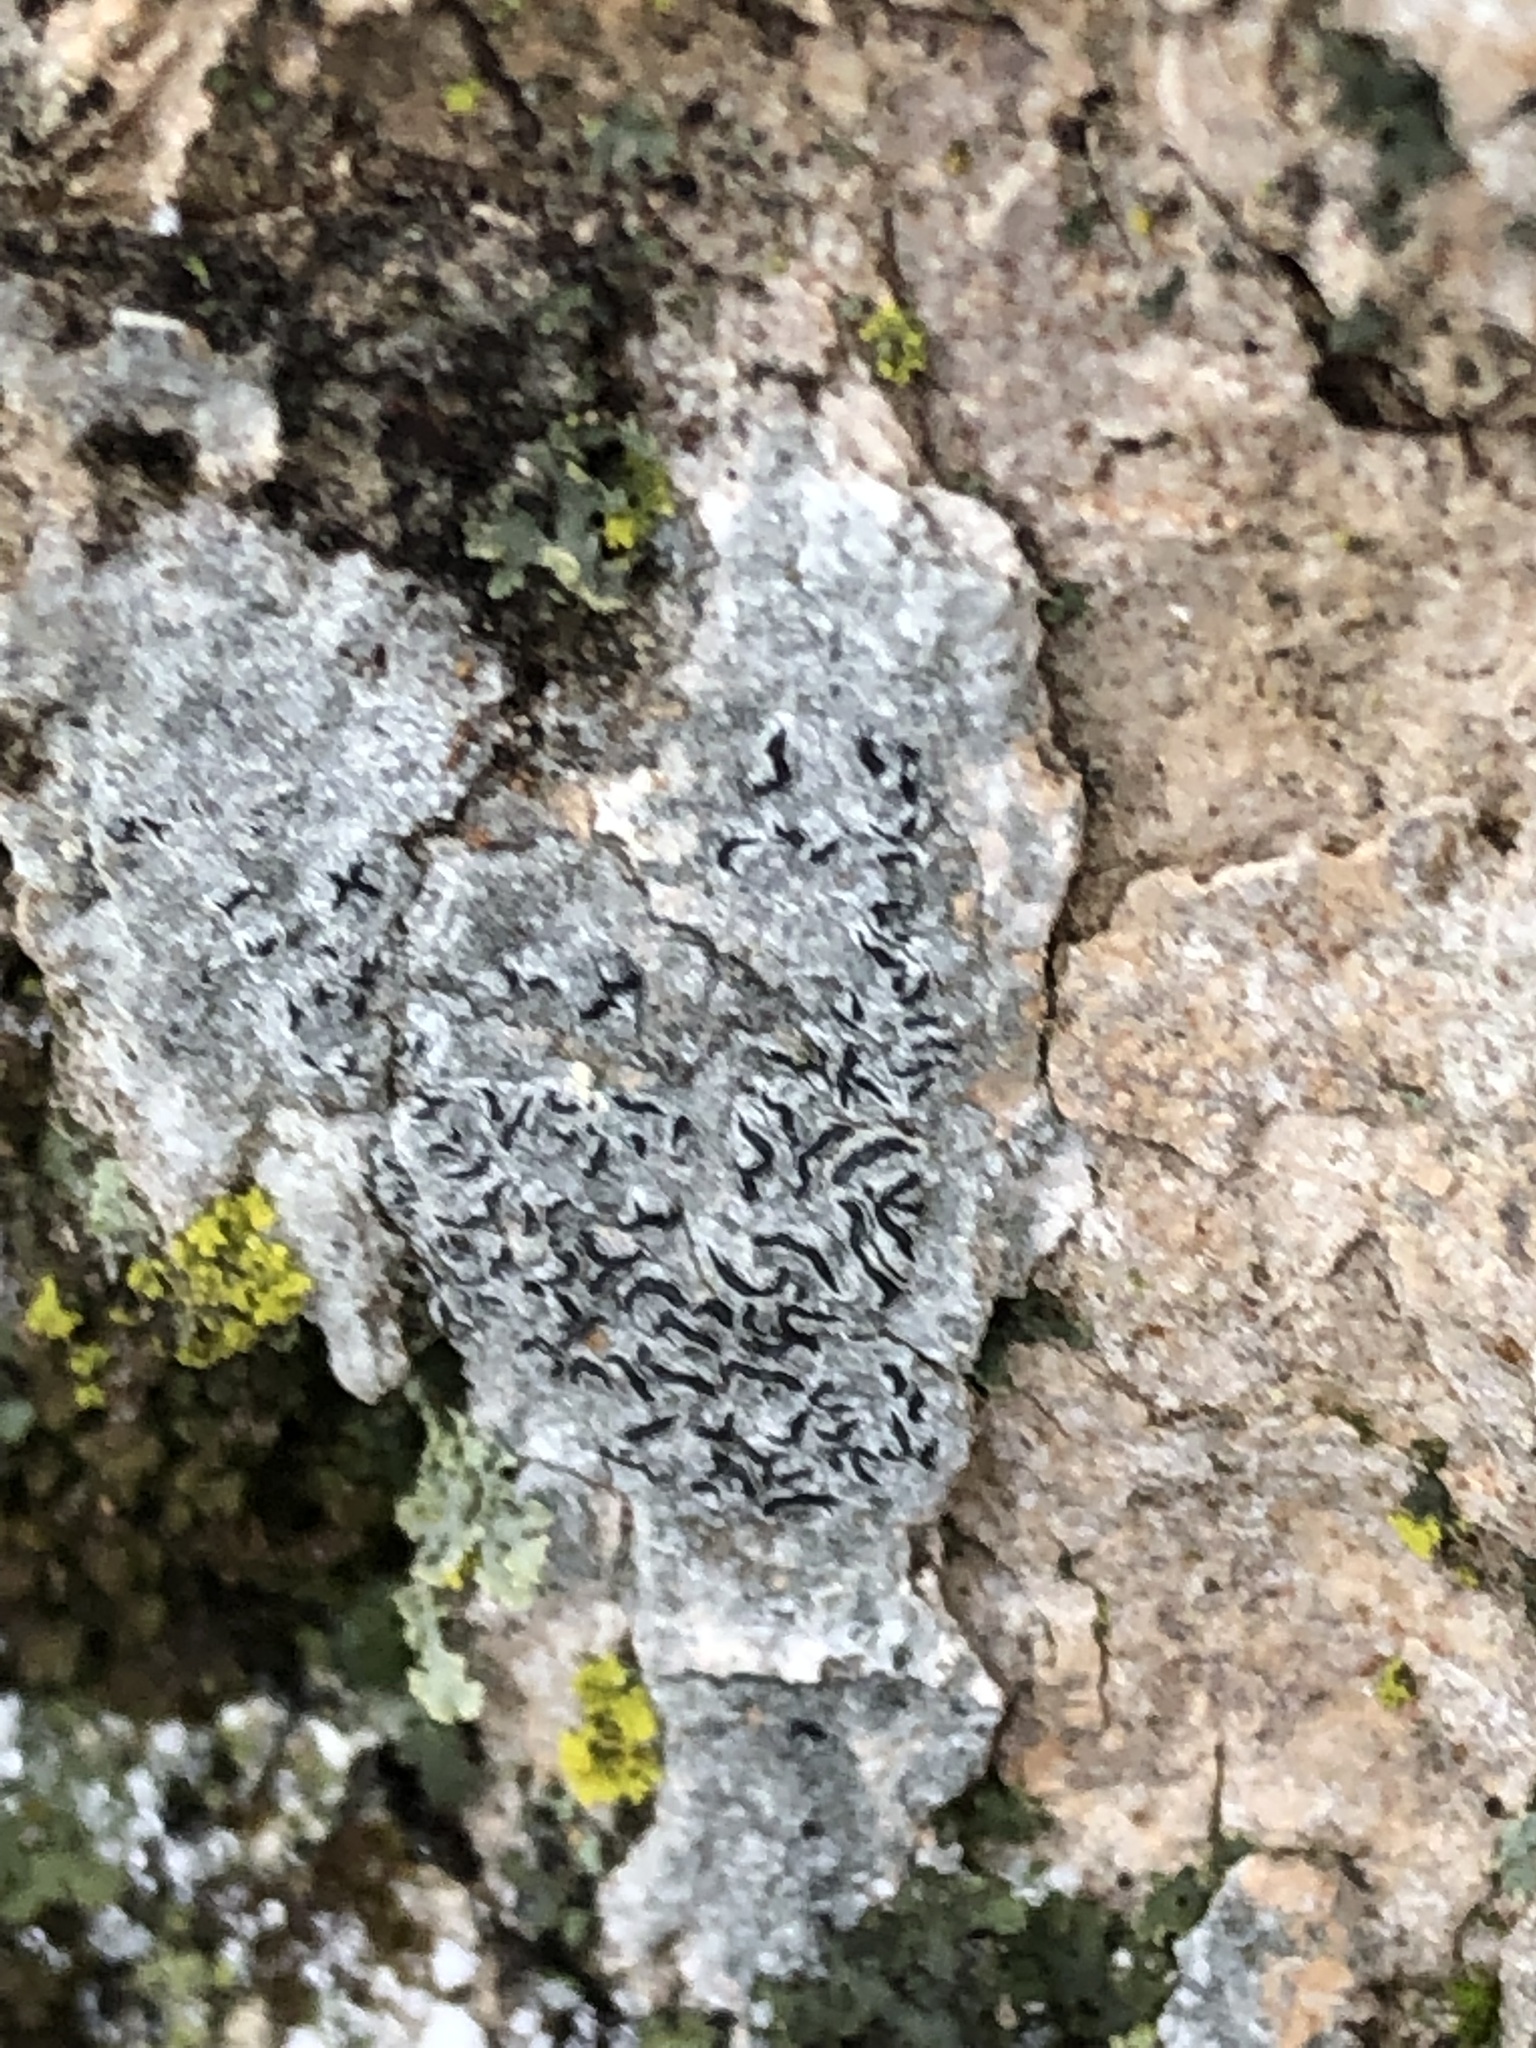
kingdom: Fungi
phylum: Ascomycota
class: Lecanoromycetes
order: Ostropales
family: Graphidaceae
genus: Graphis
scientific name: Graphis scripta
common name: Script lichen
